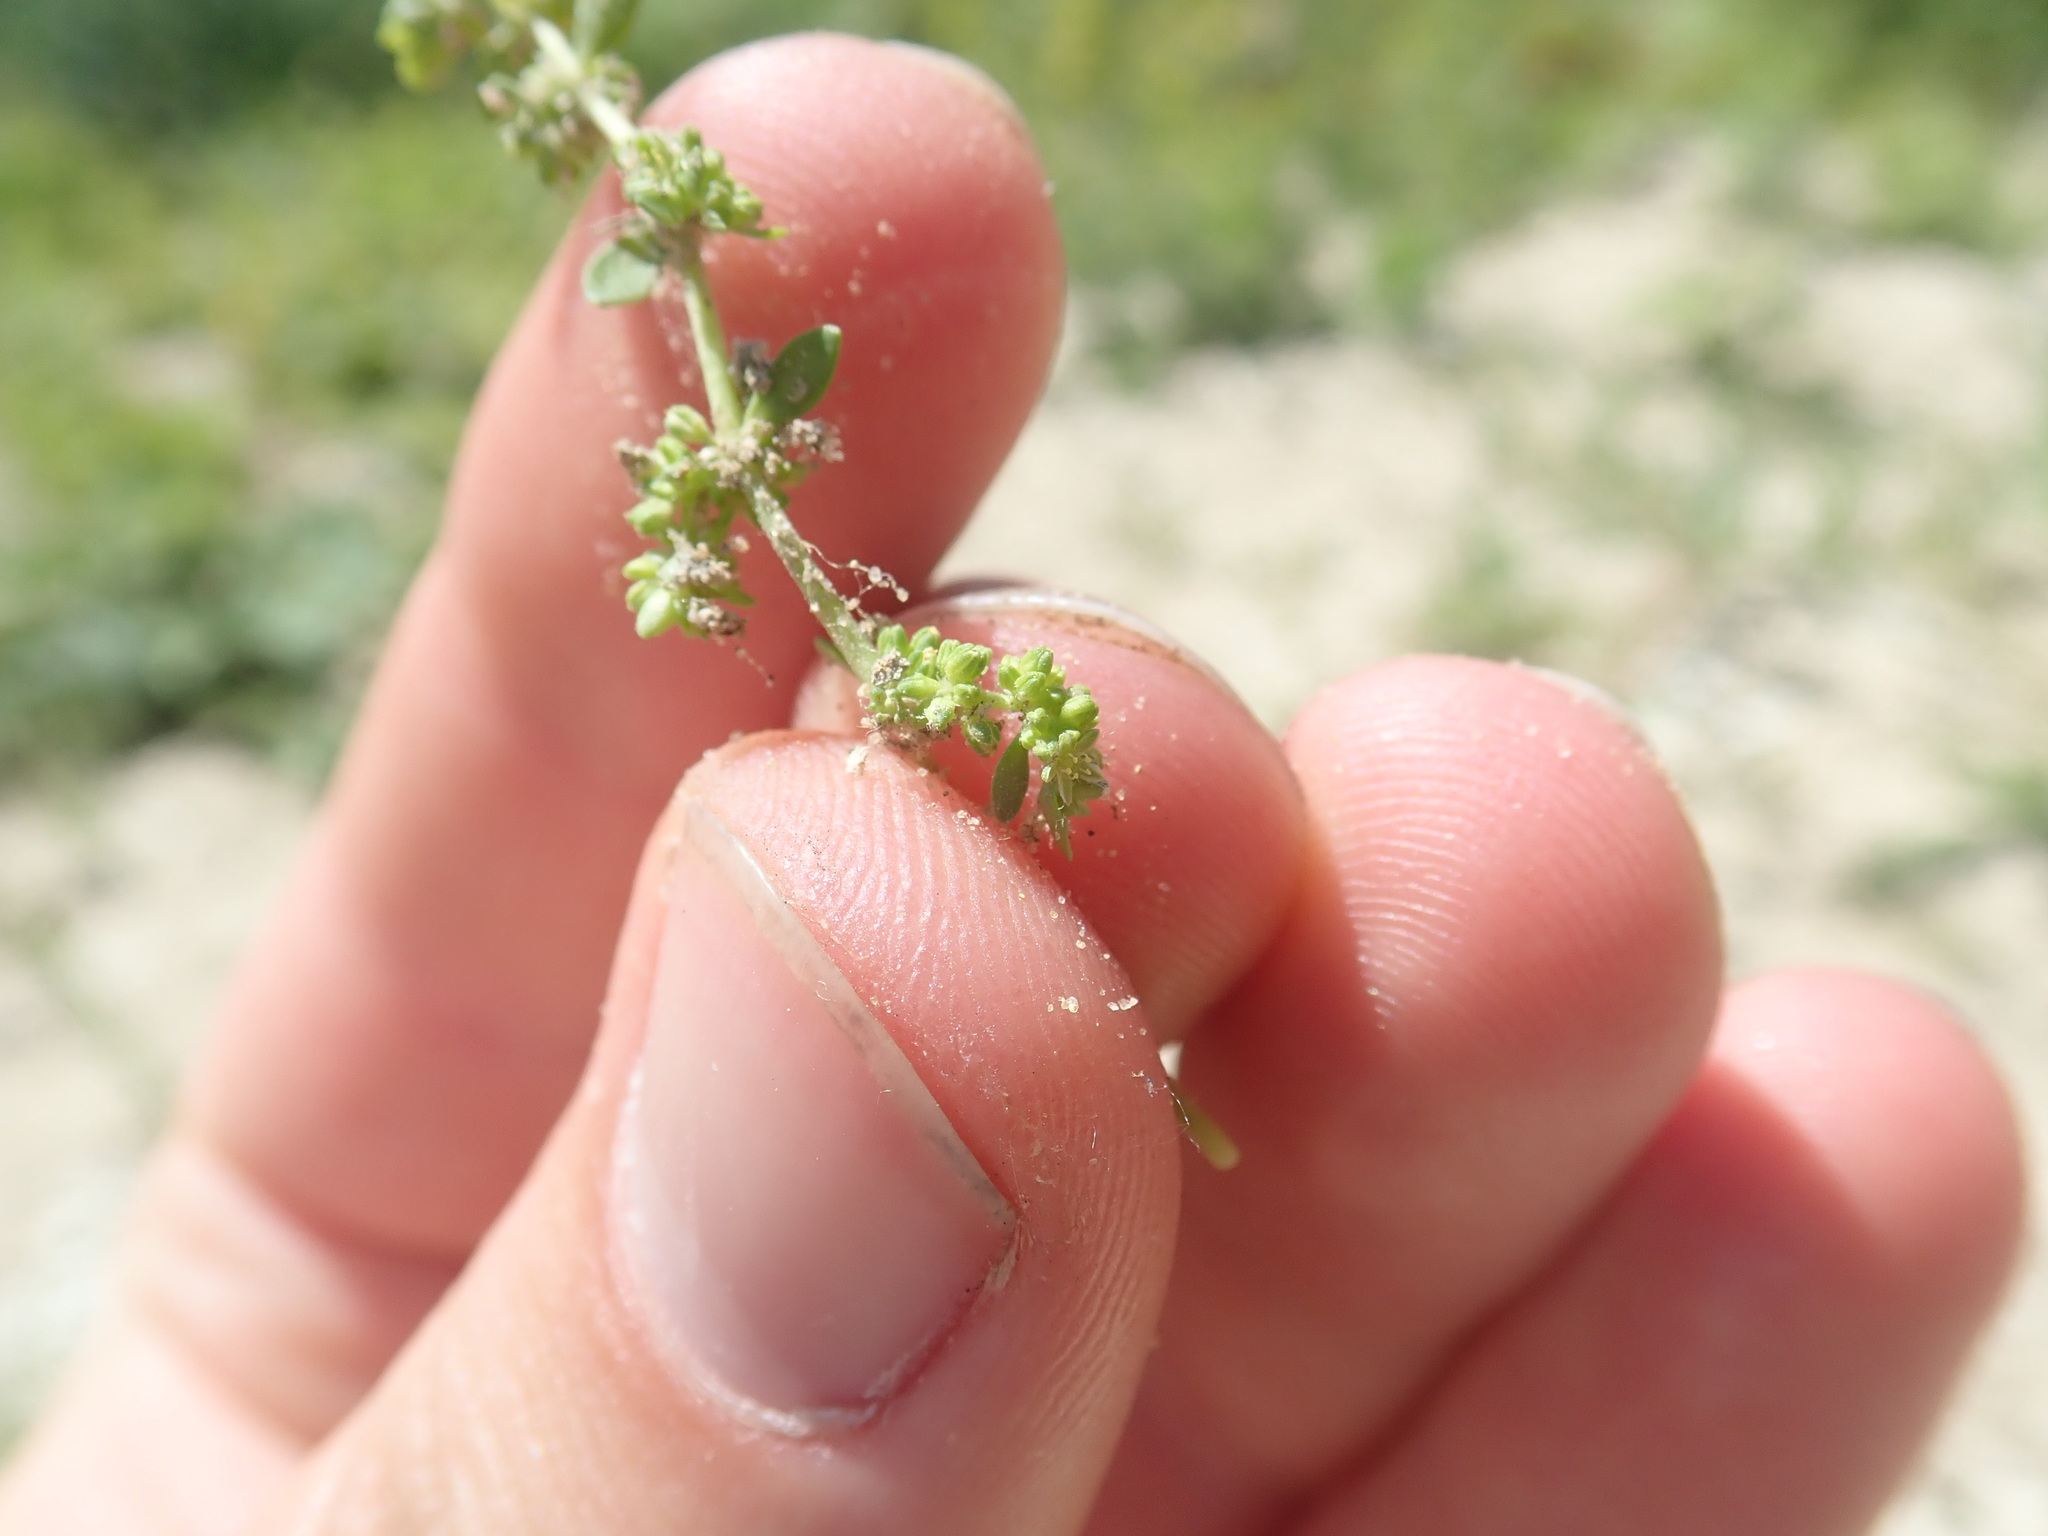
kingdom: Plantae
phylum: Tracheophyta
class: Magnoliopsida
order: Caryophyllales
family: Caryophyllaceae
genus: Herniaria
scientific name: Herniaria glabra
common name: Smooth rupturewort
